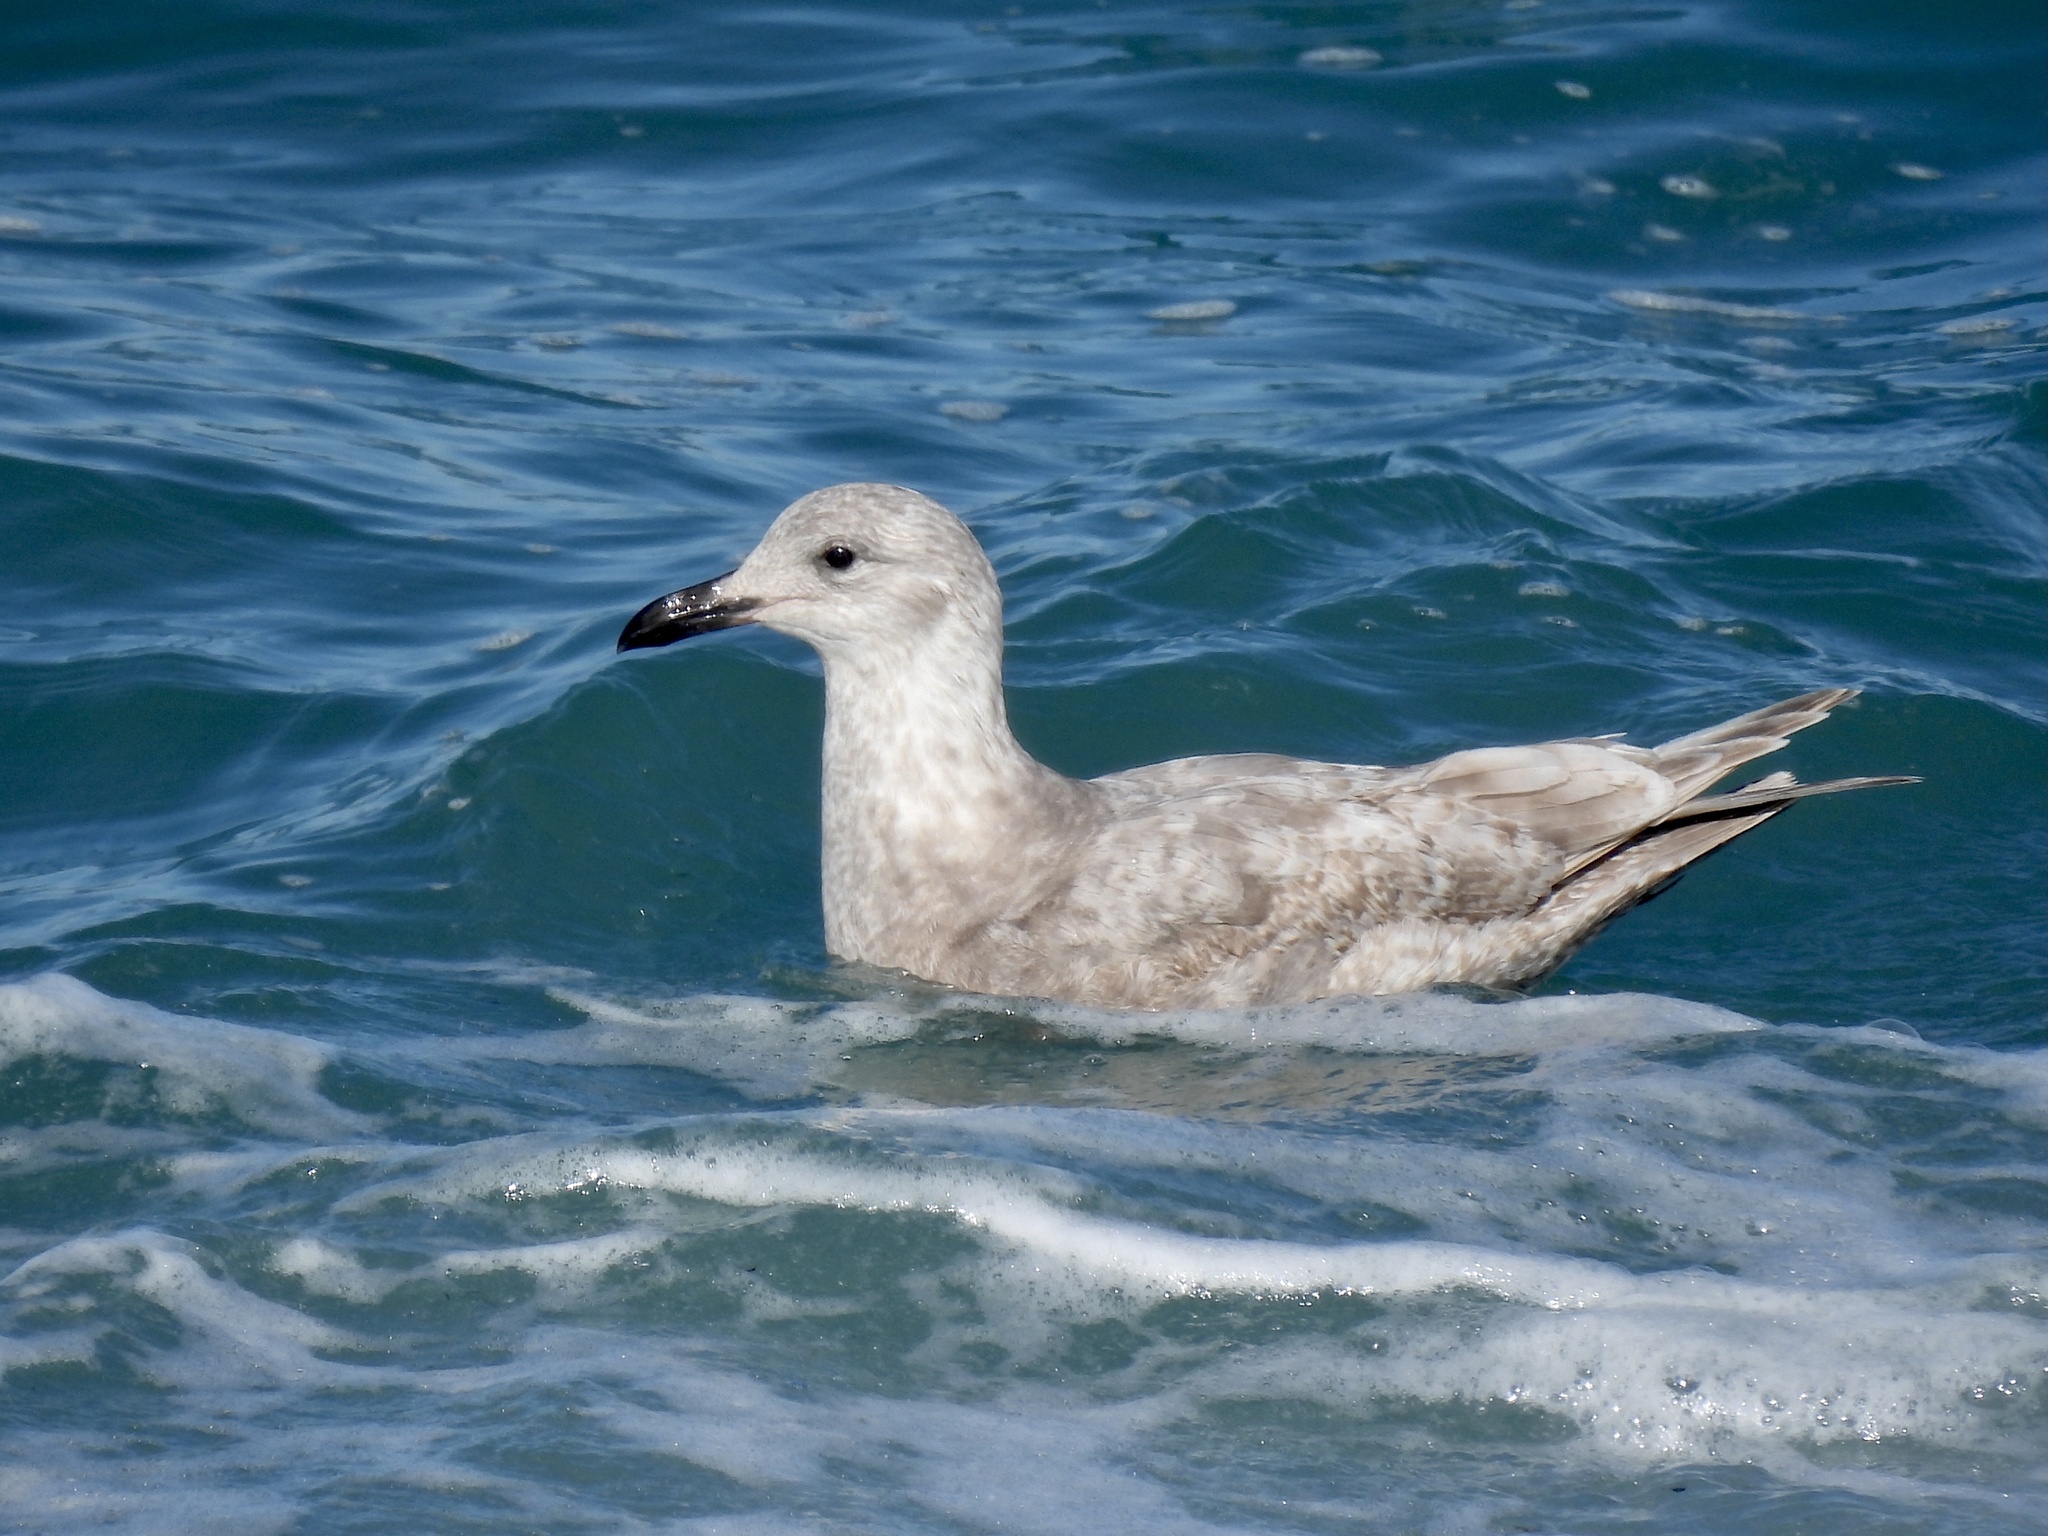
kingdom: Animalia
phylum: Chordata
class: Aves
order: Charadriiformes
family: Laridae
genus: Larus
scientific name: Larus glaucescens
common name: Glaucous-winged gull
